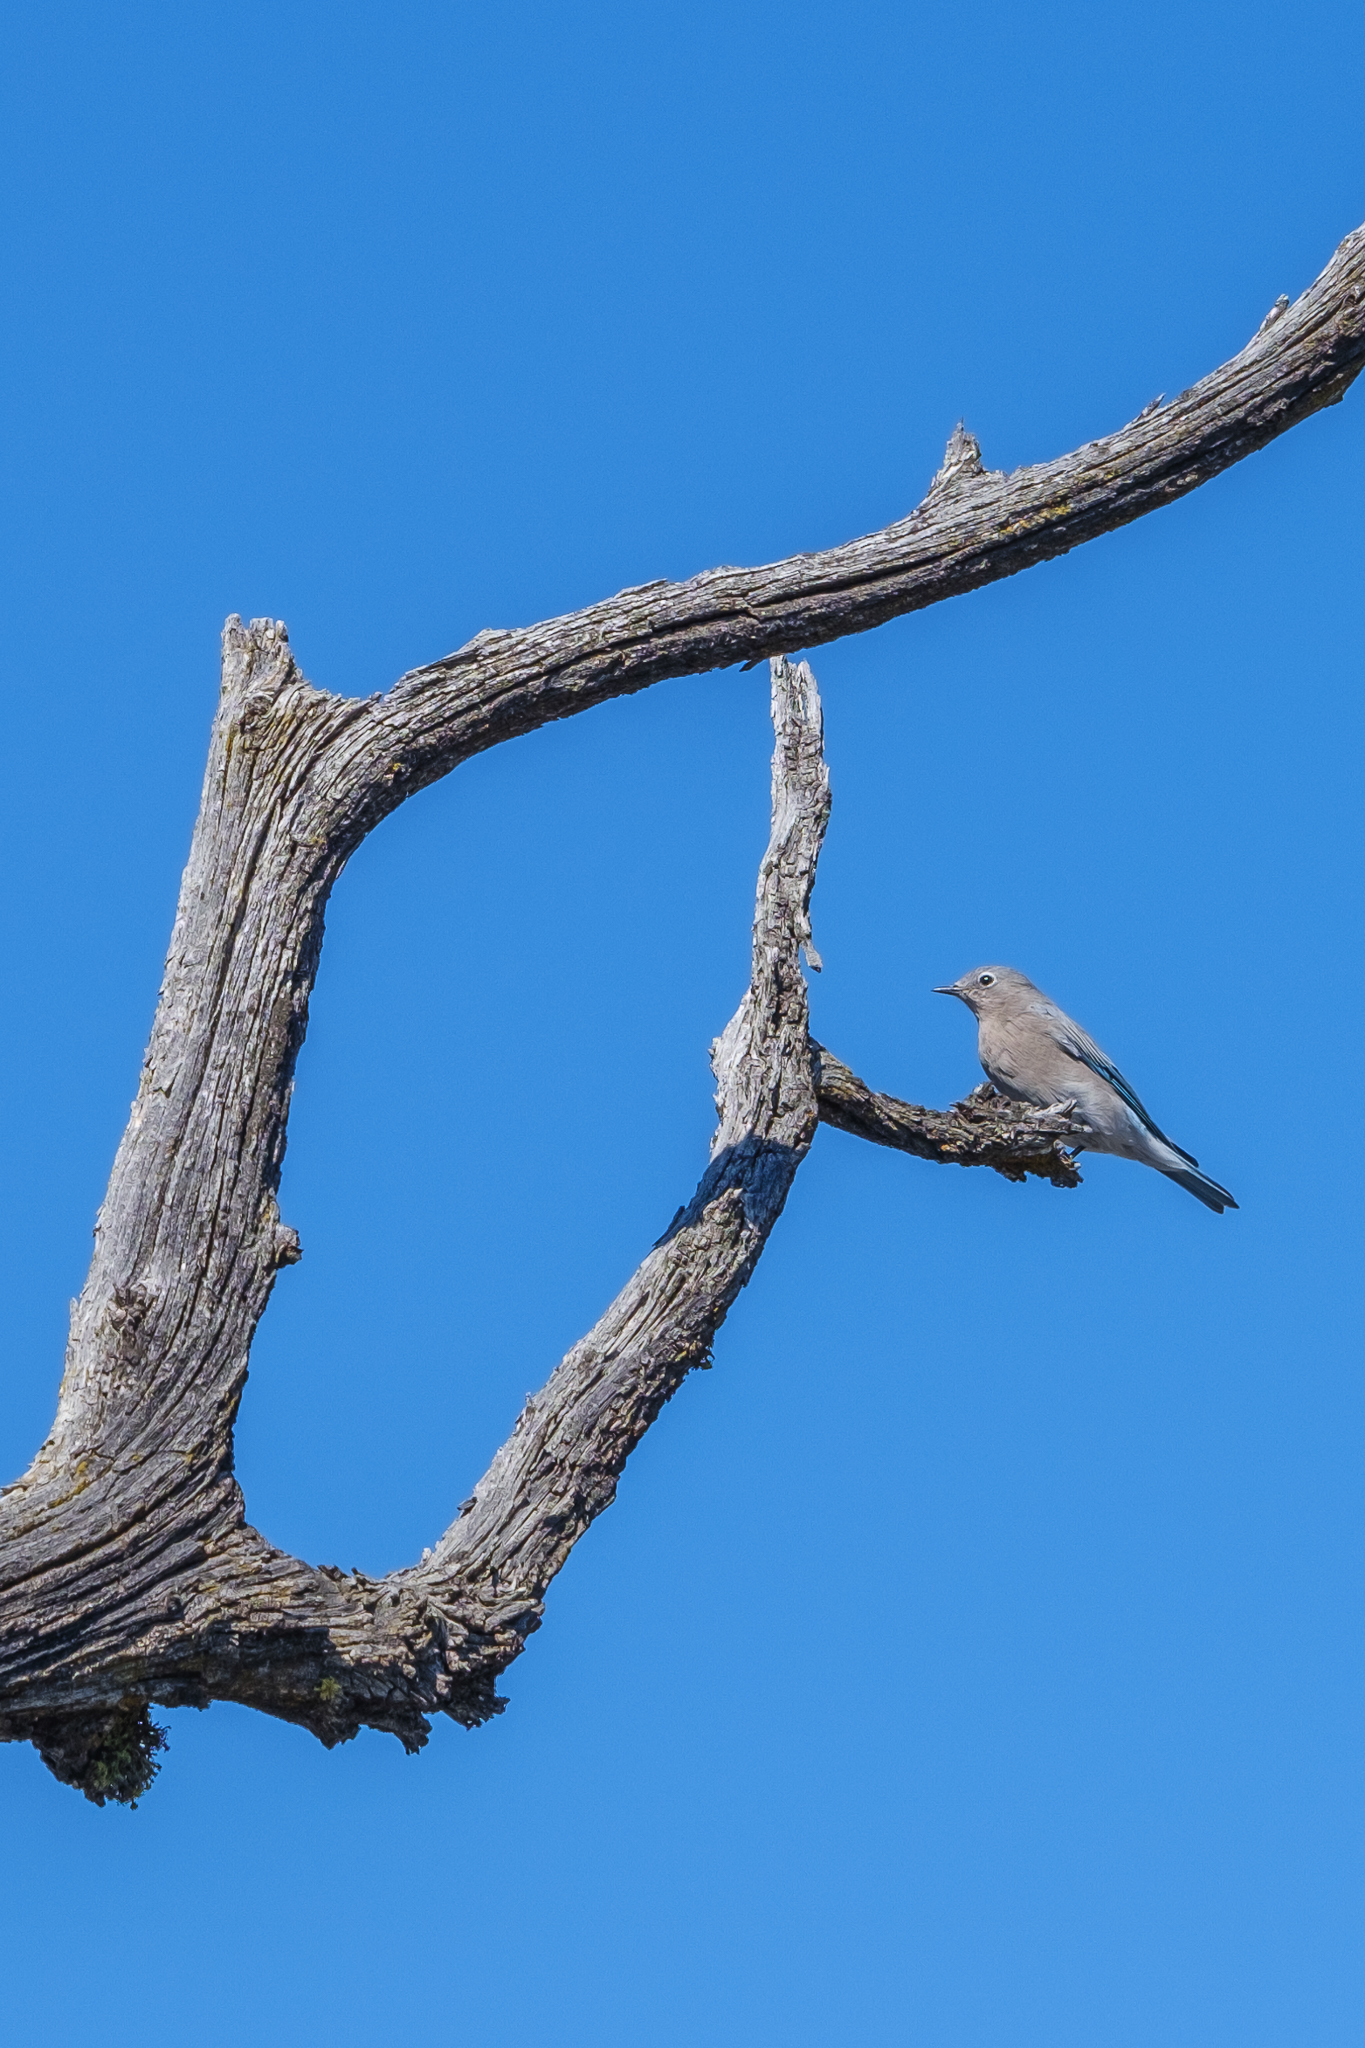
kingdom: Animalia
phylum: Chordata
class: Aves
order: Passeriformes
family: Turdidae
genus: Sialia
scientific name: Sialia currucoides
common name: Mountain bluebird
